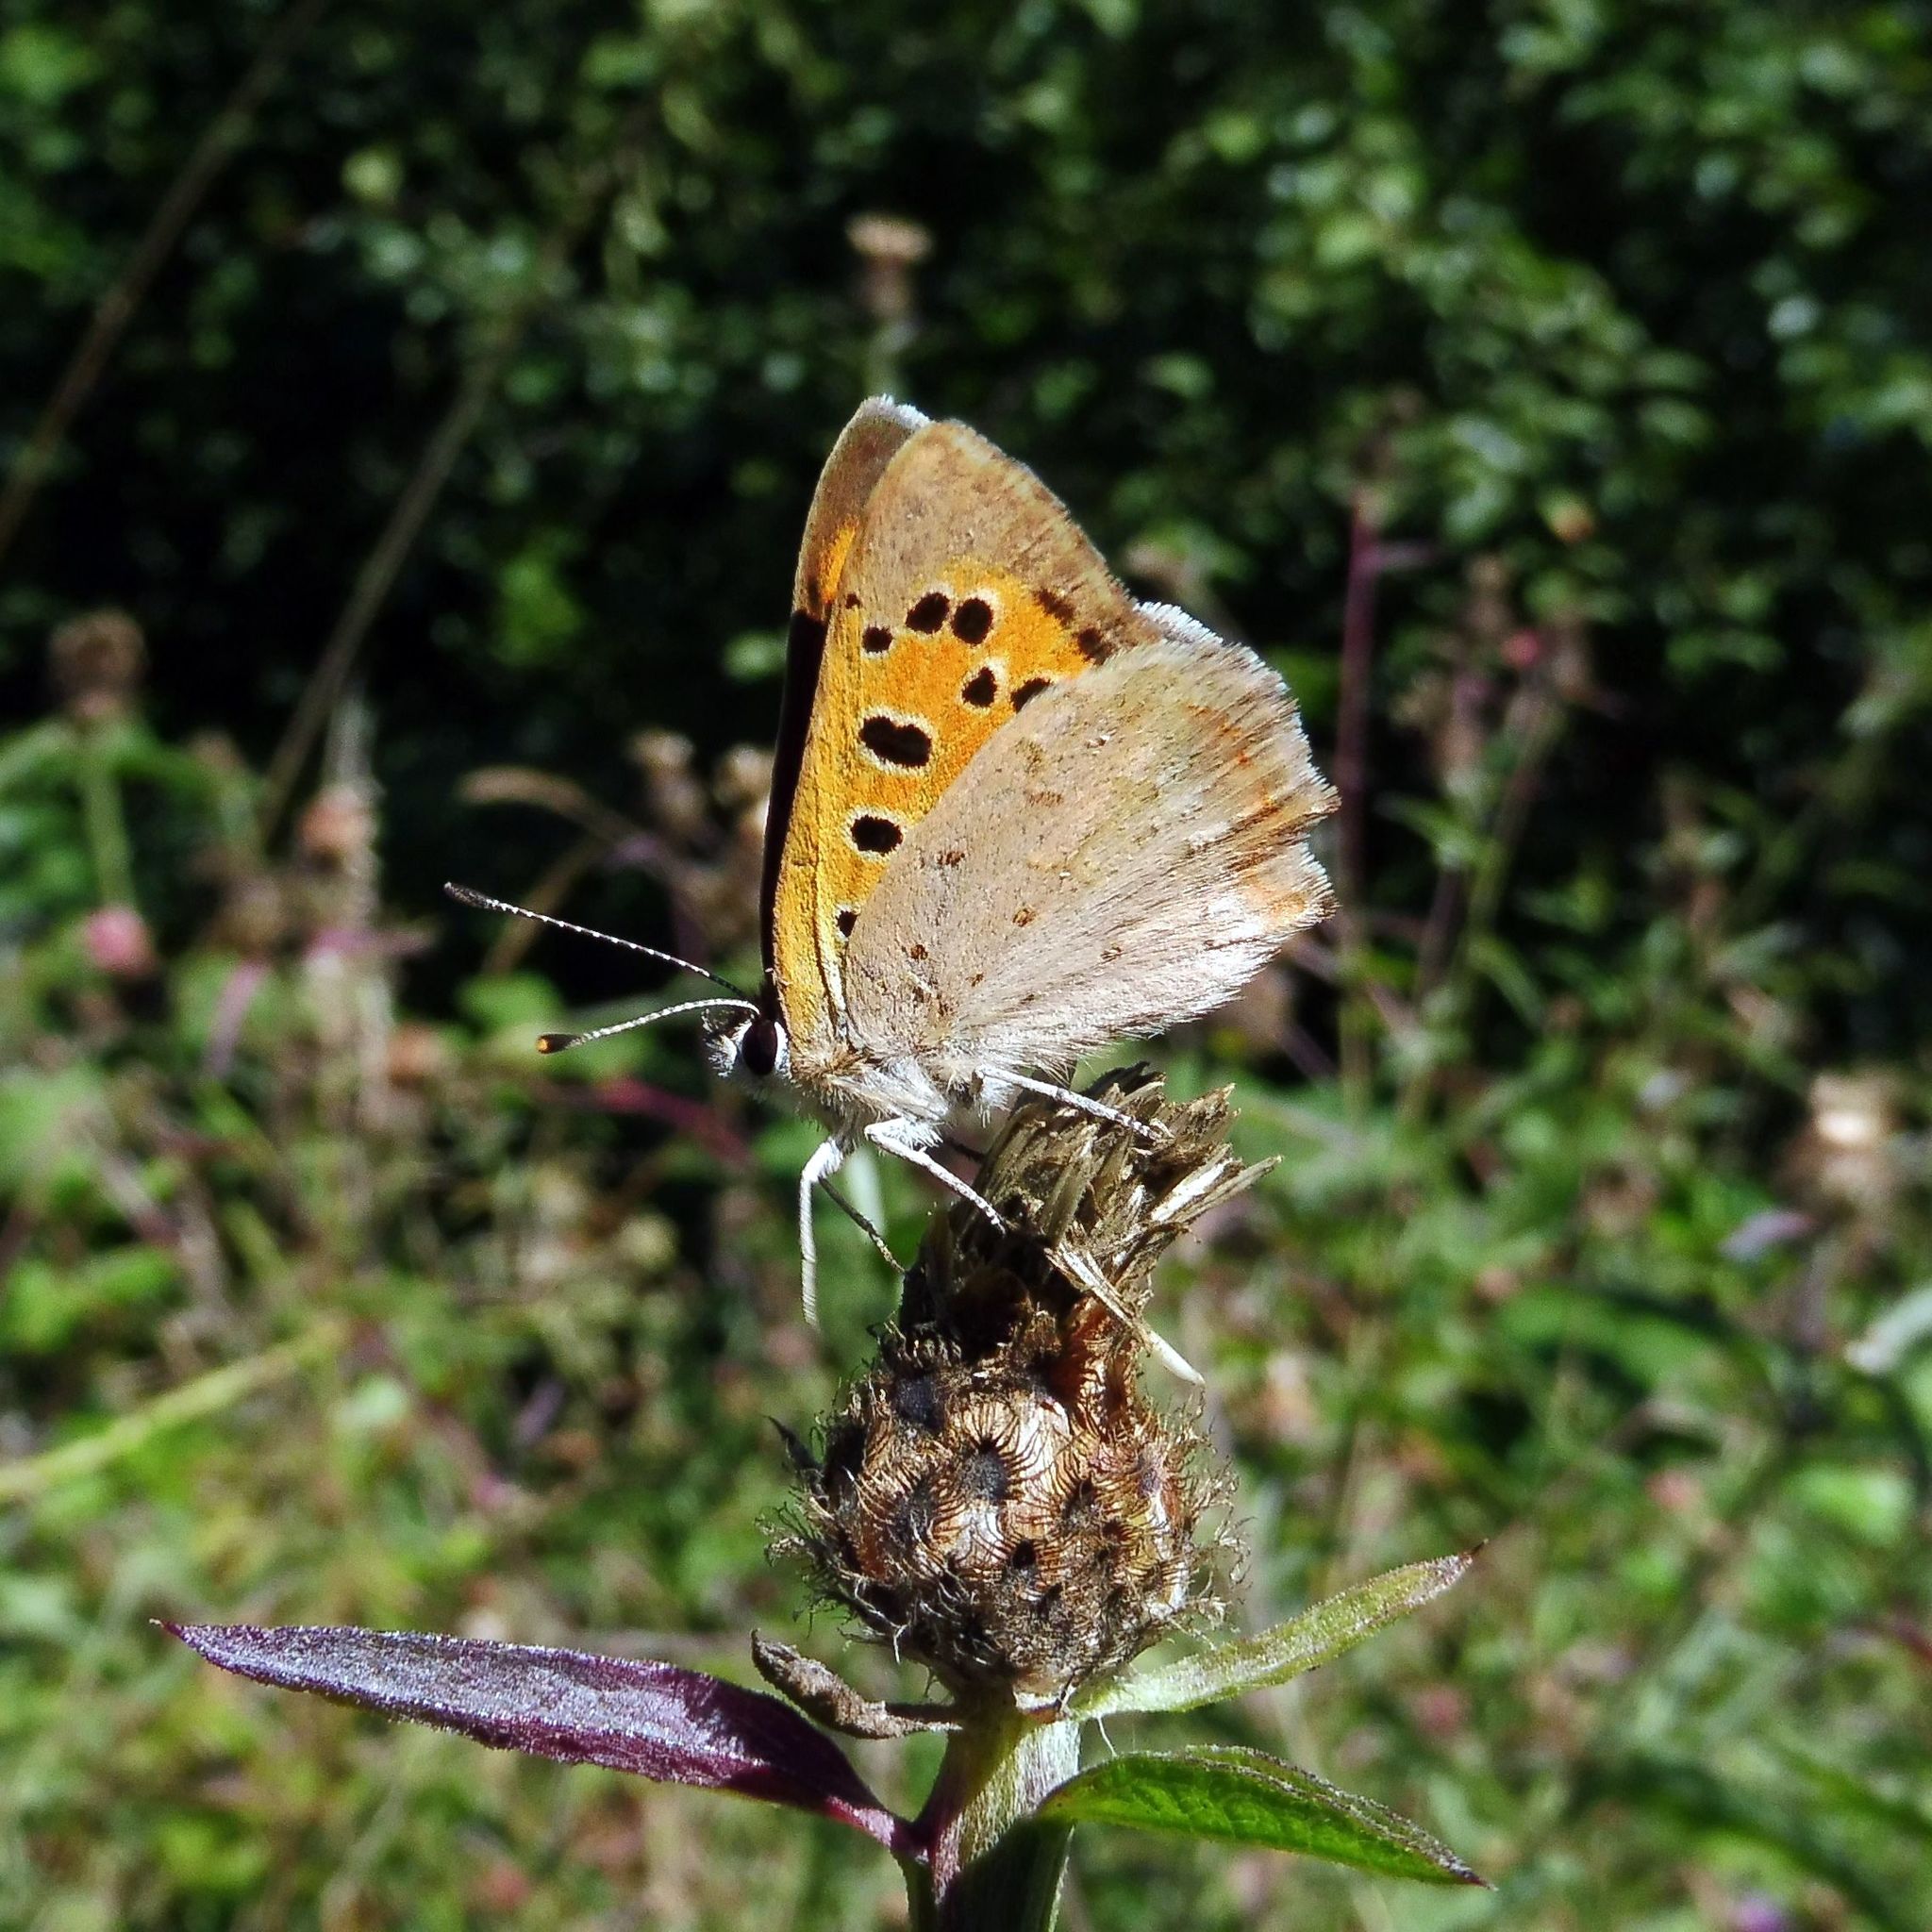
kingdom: Animalia
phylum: Arthropoda
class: Insecta
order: Lepidoptera
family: Lycaenidae
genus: Lycaena
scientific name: Lycaena phlaeas
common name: Small copper
